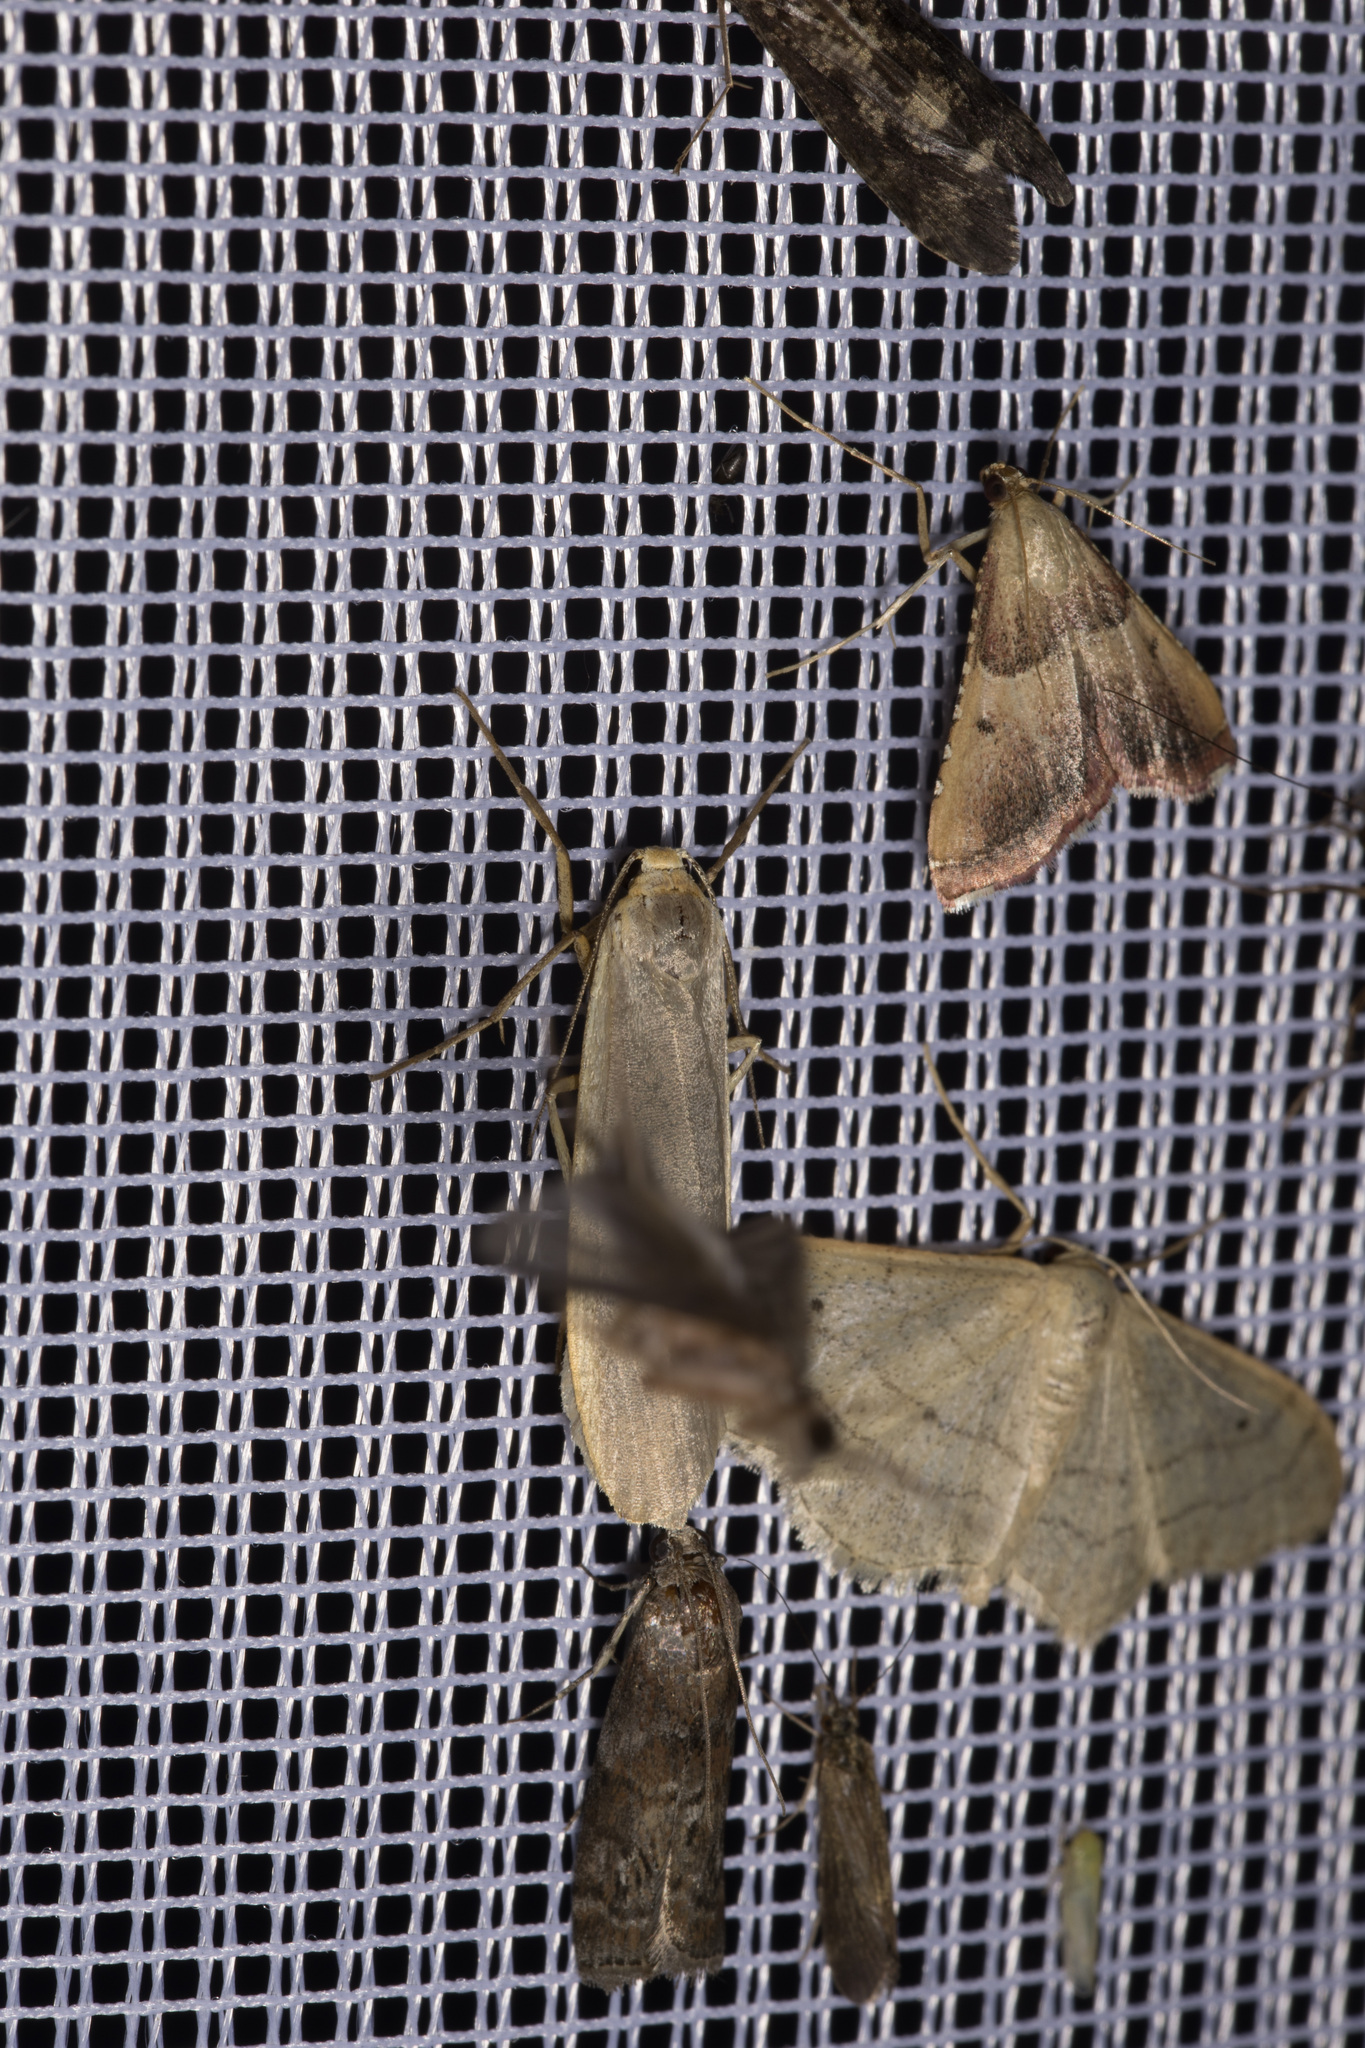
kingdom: Animalia
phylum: Arthropoda
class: Insecta
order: Lepidoptera
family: Pyralidae
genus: Endotricha
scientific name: Endotricha flammealis
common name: Rosy tabby
